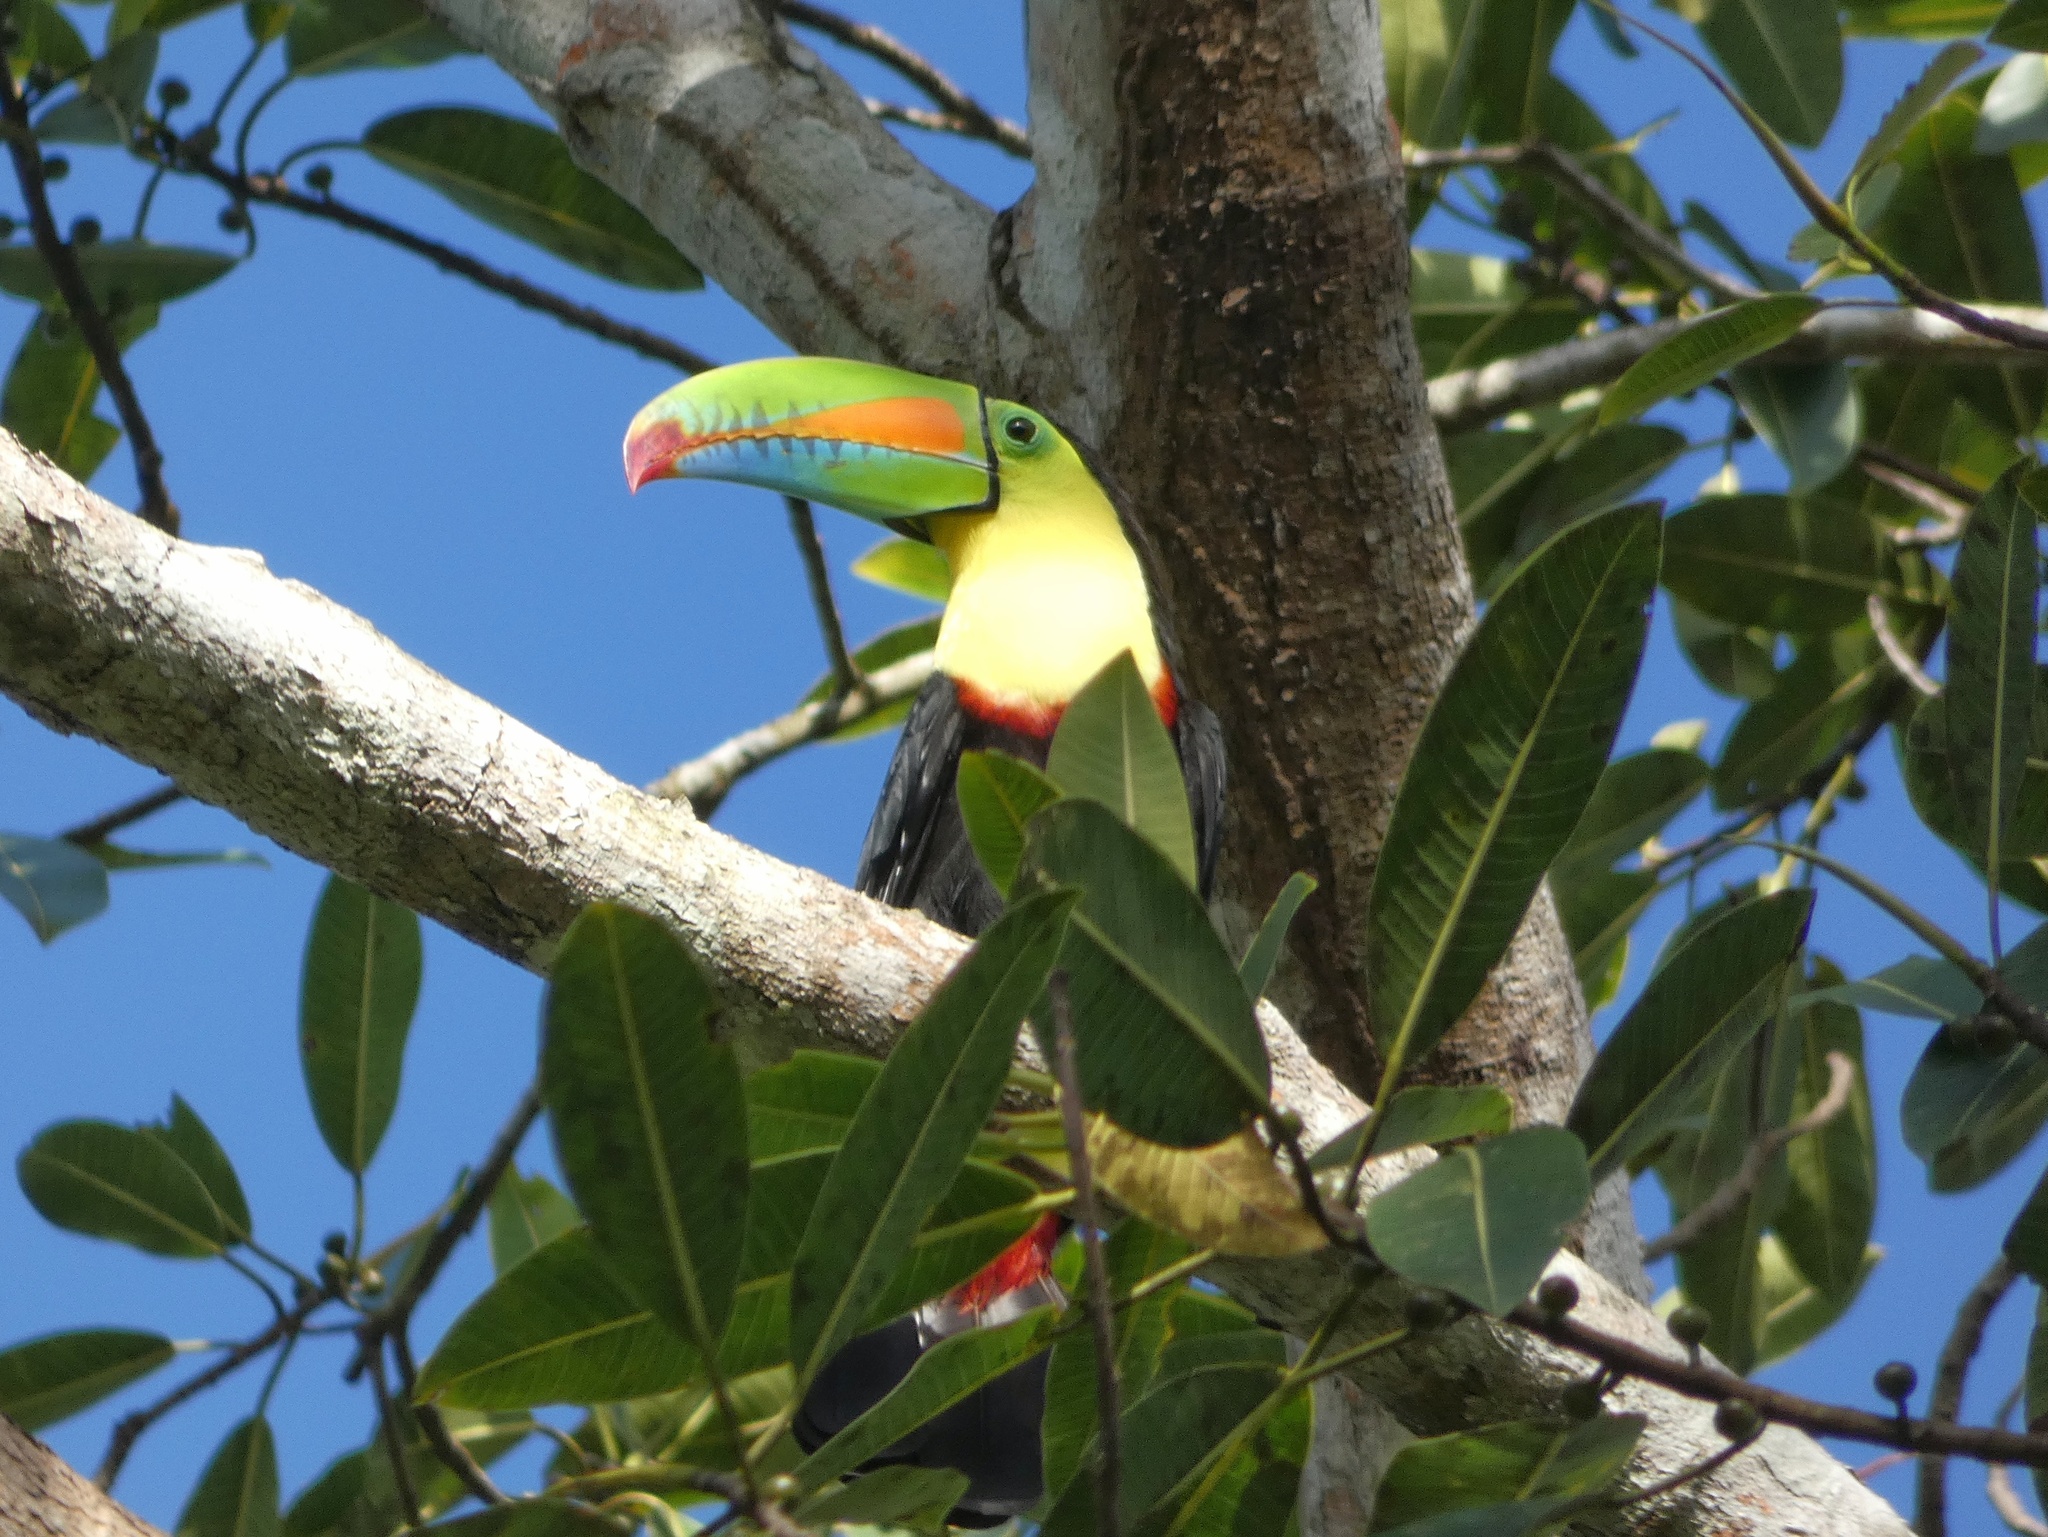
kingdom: Animalia
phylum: Chordata
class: Aves
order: Piciformes
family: Ramphastidae
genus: Ramphastos
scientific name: Ramphastos sulfuratus
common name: Keel-billed toucan
